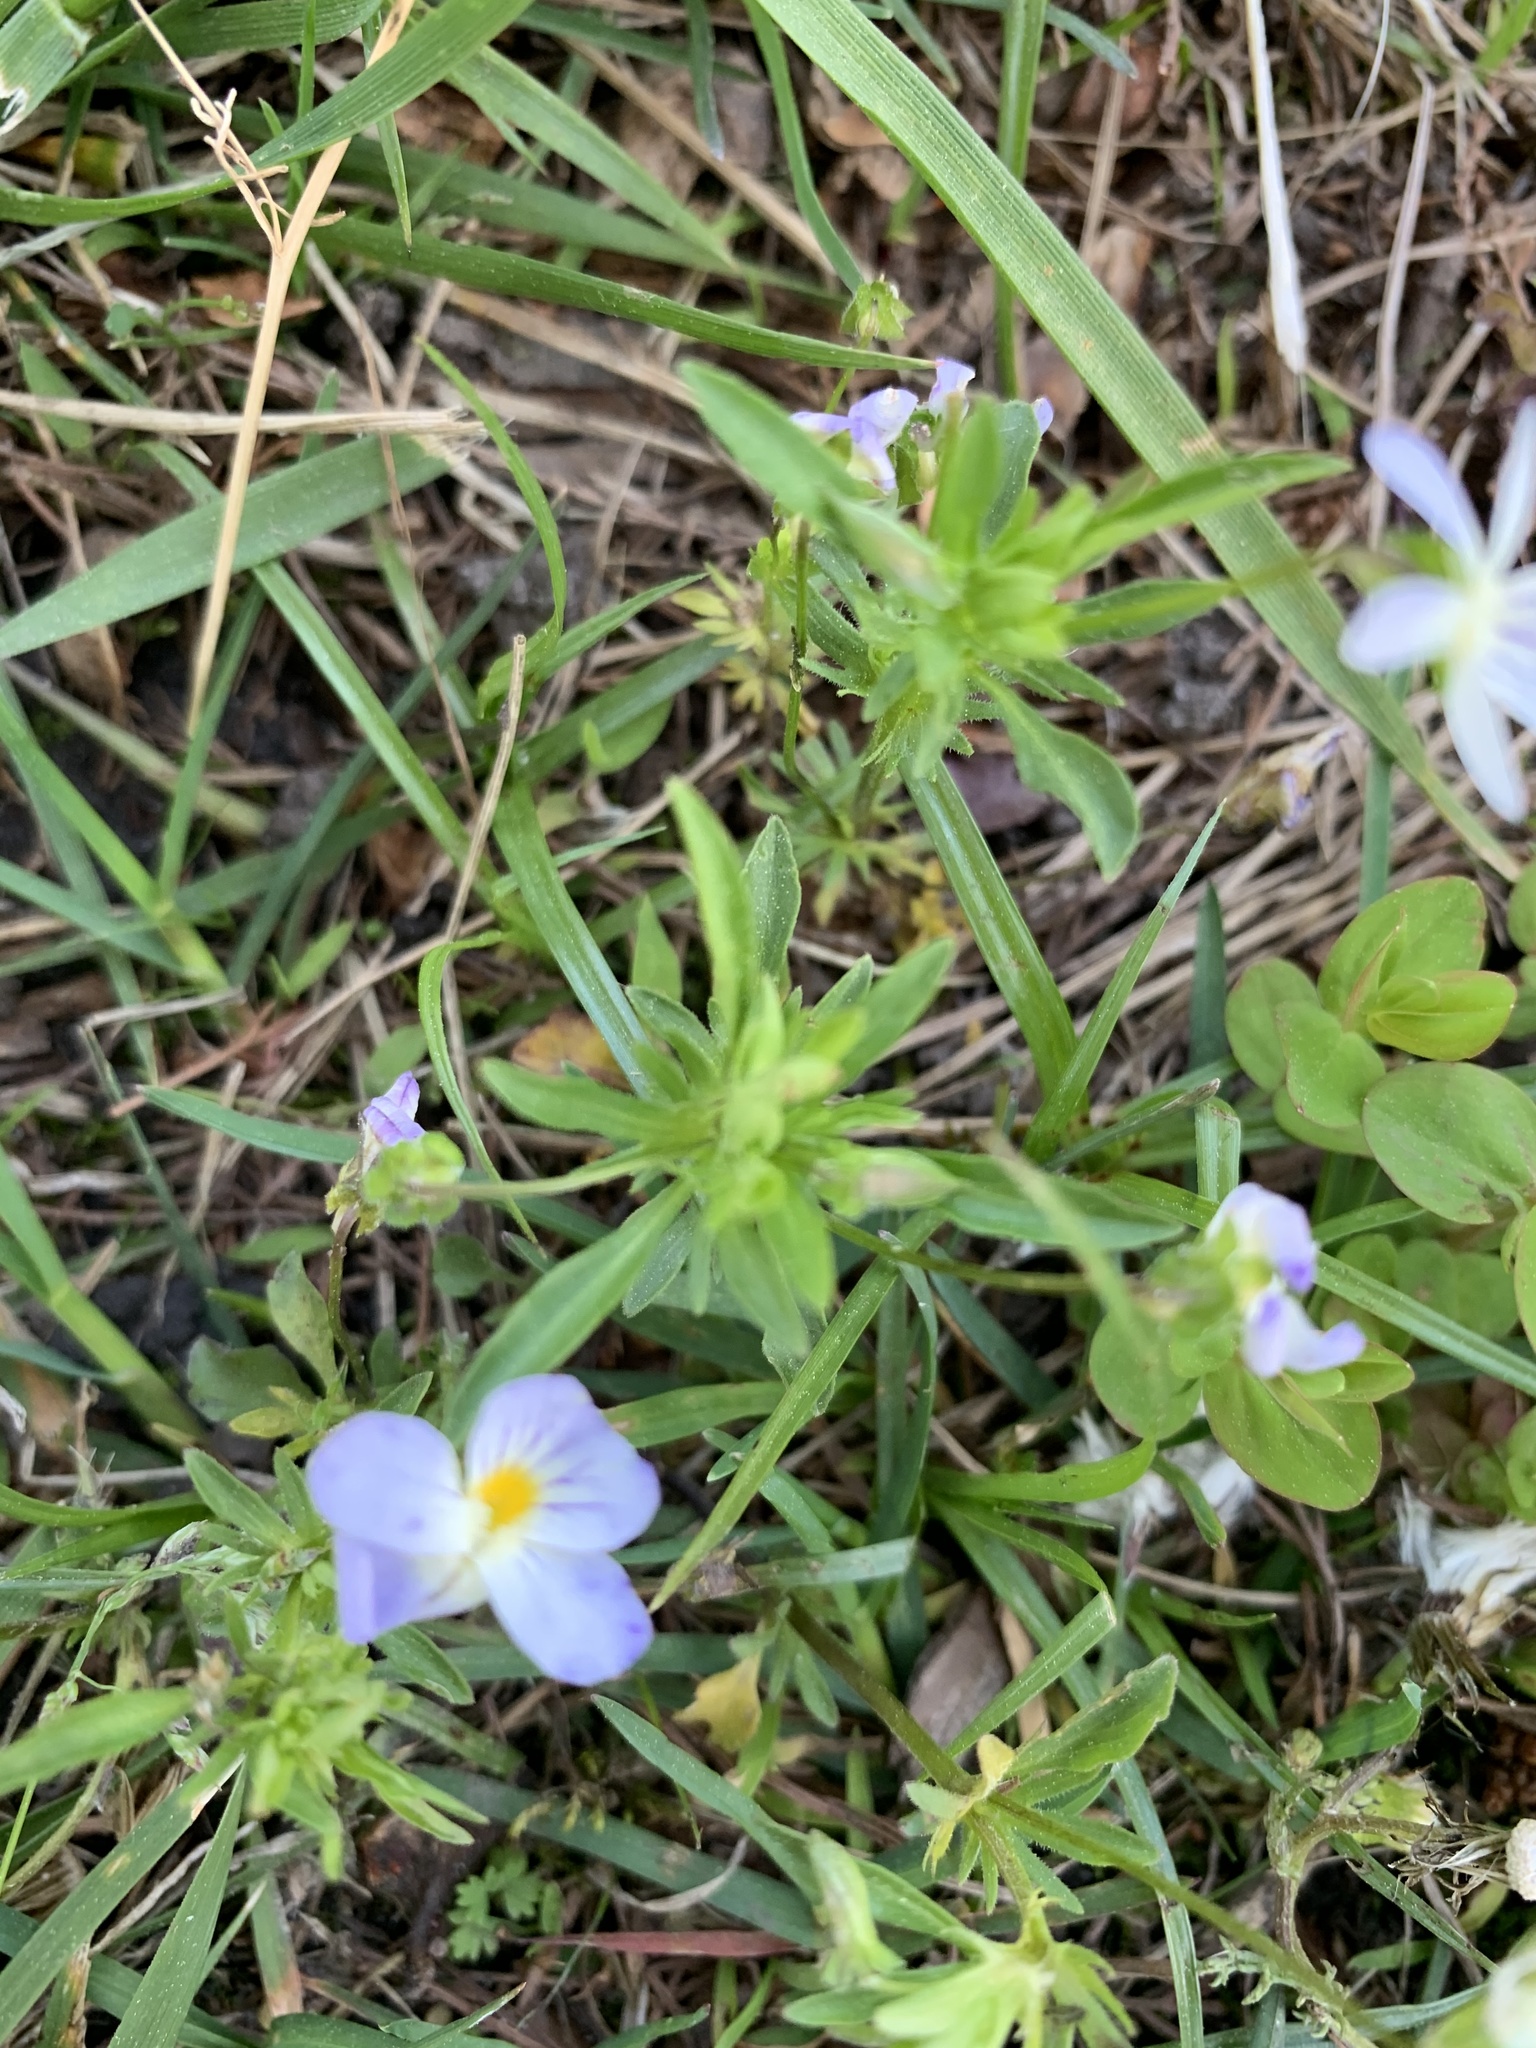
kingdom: Plantae
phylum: Tracheophyta
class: Magnoliopsida
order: Malpighiales
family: Violaceae
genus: Viola
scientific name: Viola rafinesquei
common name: American field pansy
